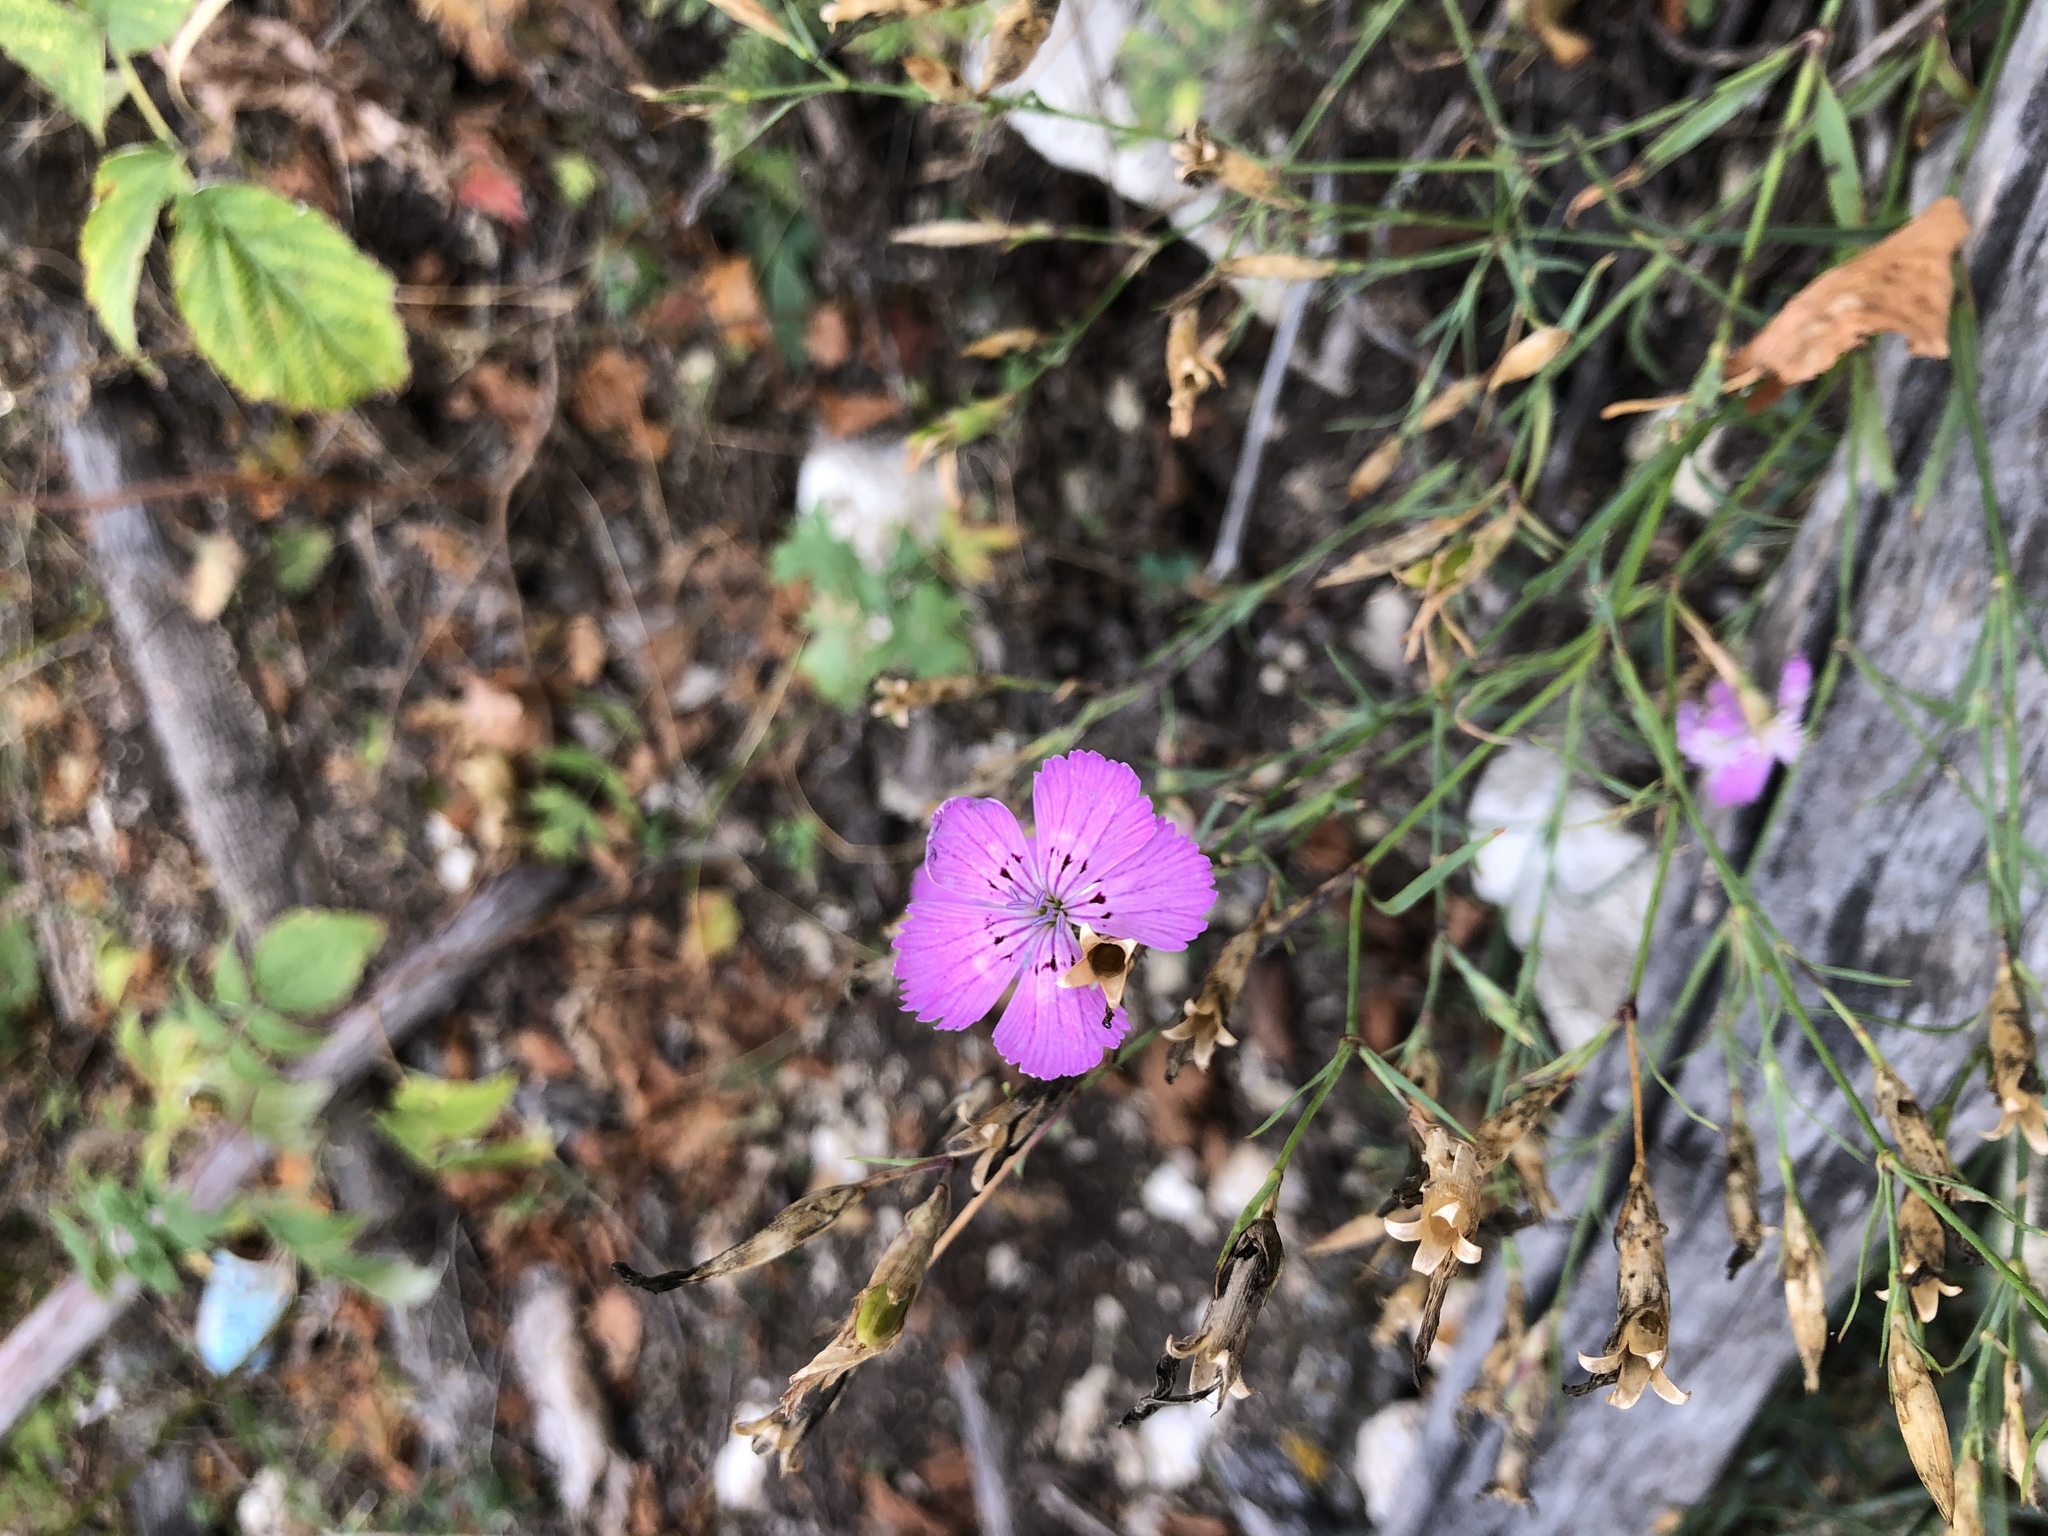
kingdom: Plantae
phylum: Tracheophyta
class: Magnoliopsida
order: Caryophyllales
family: Caryophyllaceae
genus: Dianthus
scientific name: Dianthus chinensis
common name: Rainbow pink
